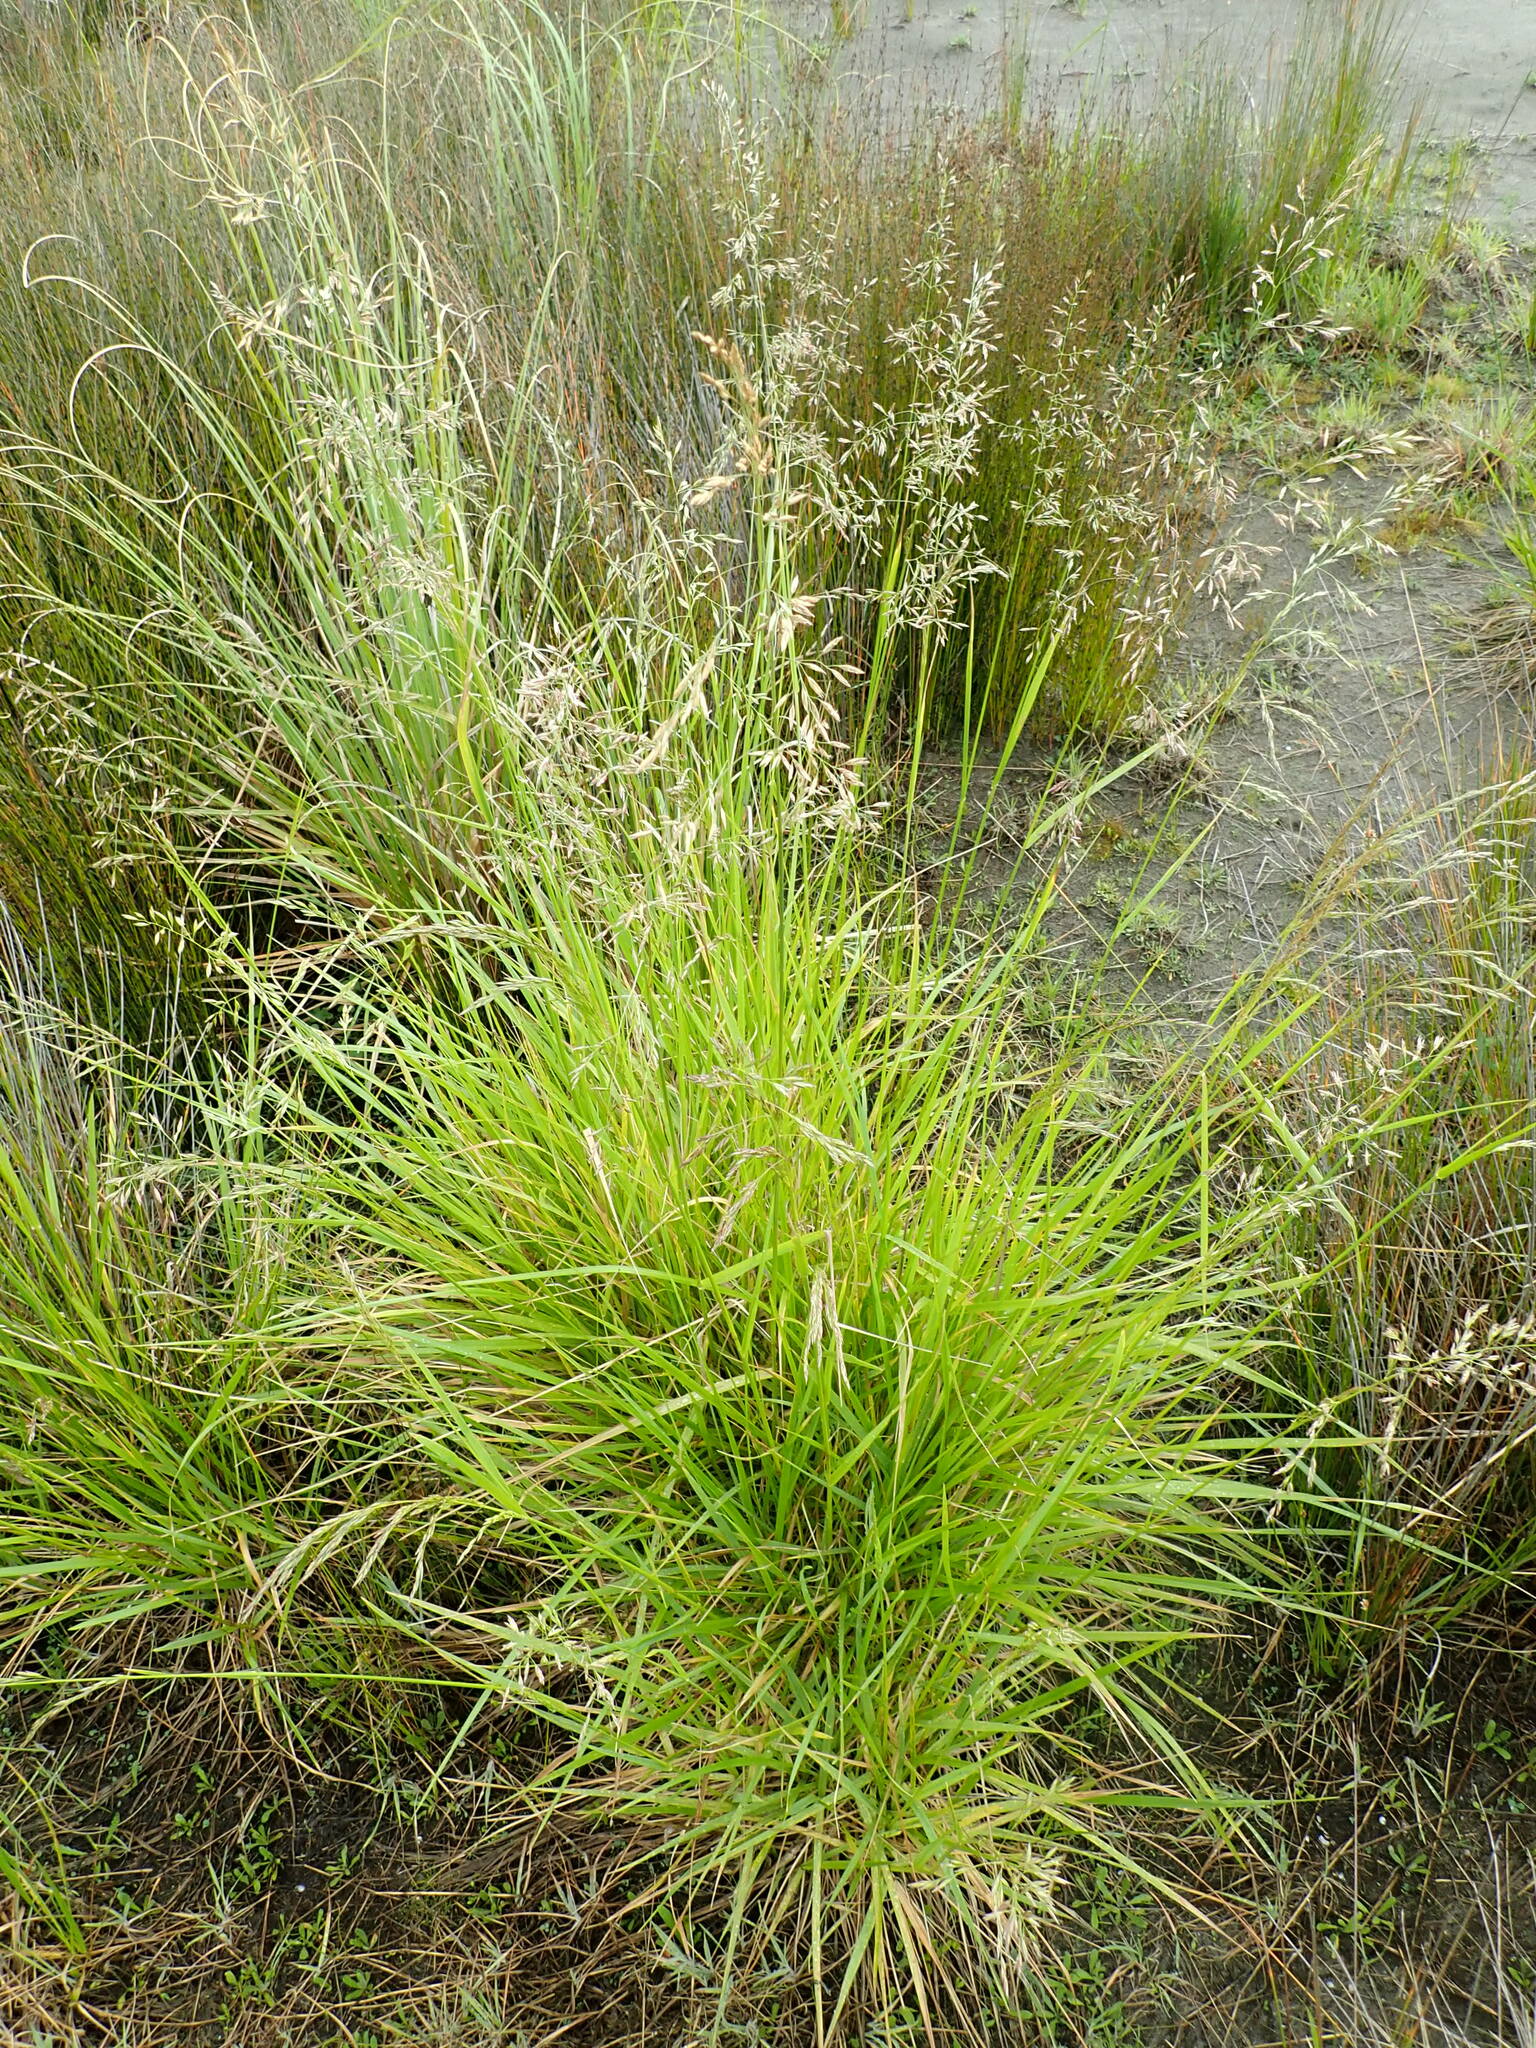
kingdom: Plantae
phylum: Tracheophyta
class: Liliopsida
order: Poales
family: Poaceae
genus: Lolium
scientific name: Lolium arundinaceum
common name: Reed fescue
